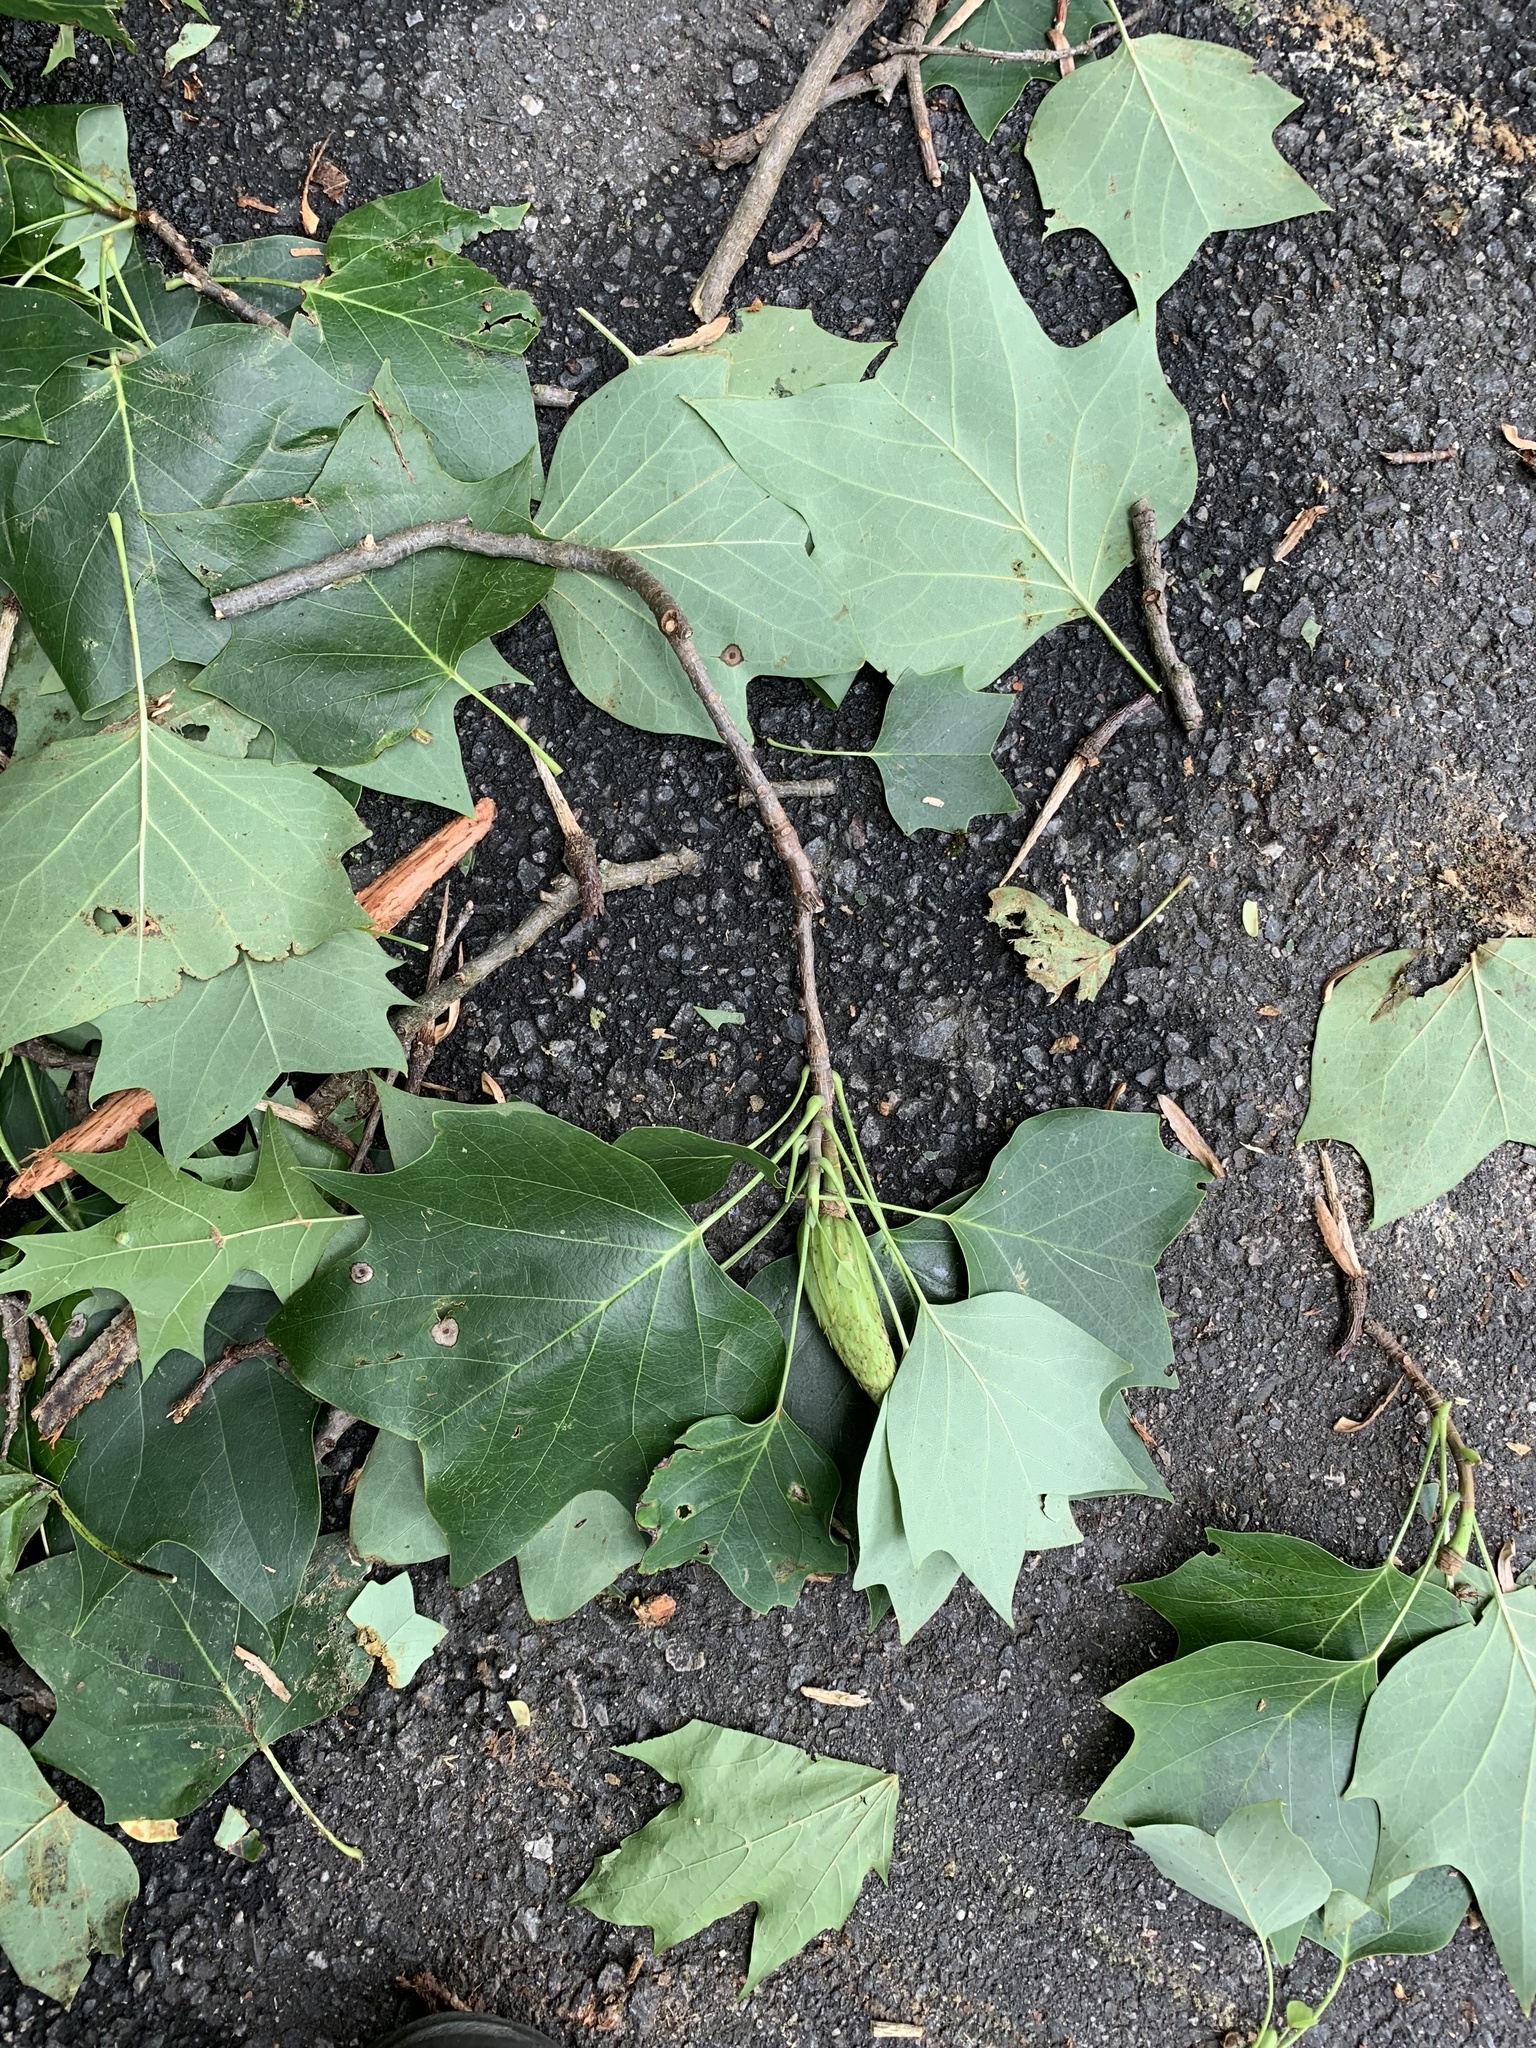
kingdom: Plantae
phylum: Tracheophyta
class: Magnoliopsida
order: Magnoliales
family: Magnoliaceae
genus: Liriodendron
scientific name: Liriodendron tulipifera
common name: Tulip tree
